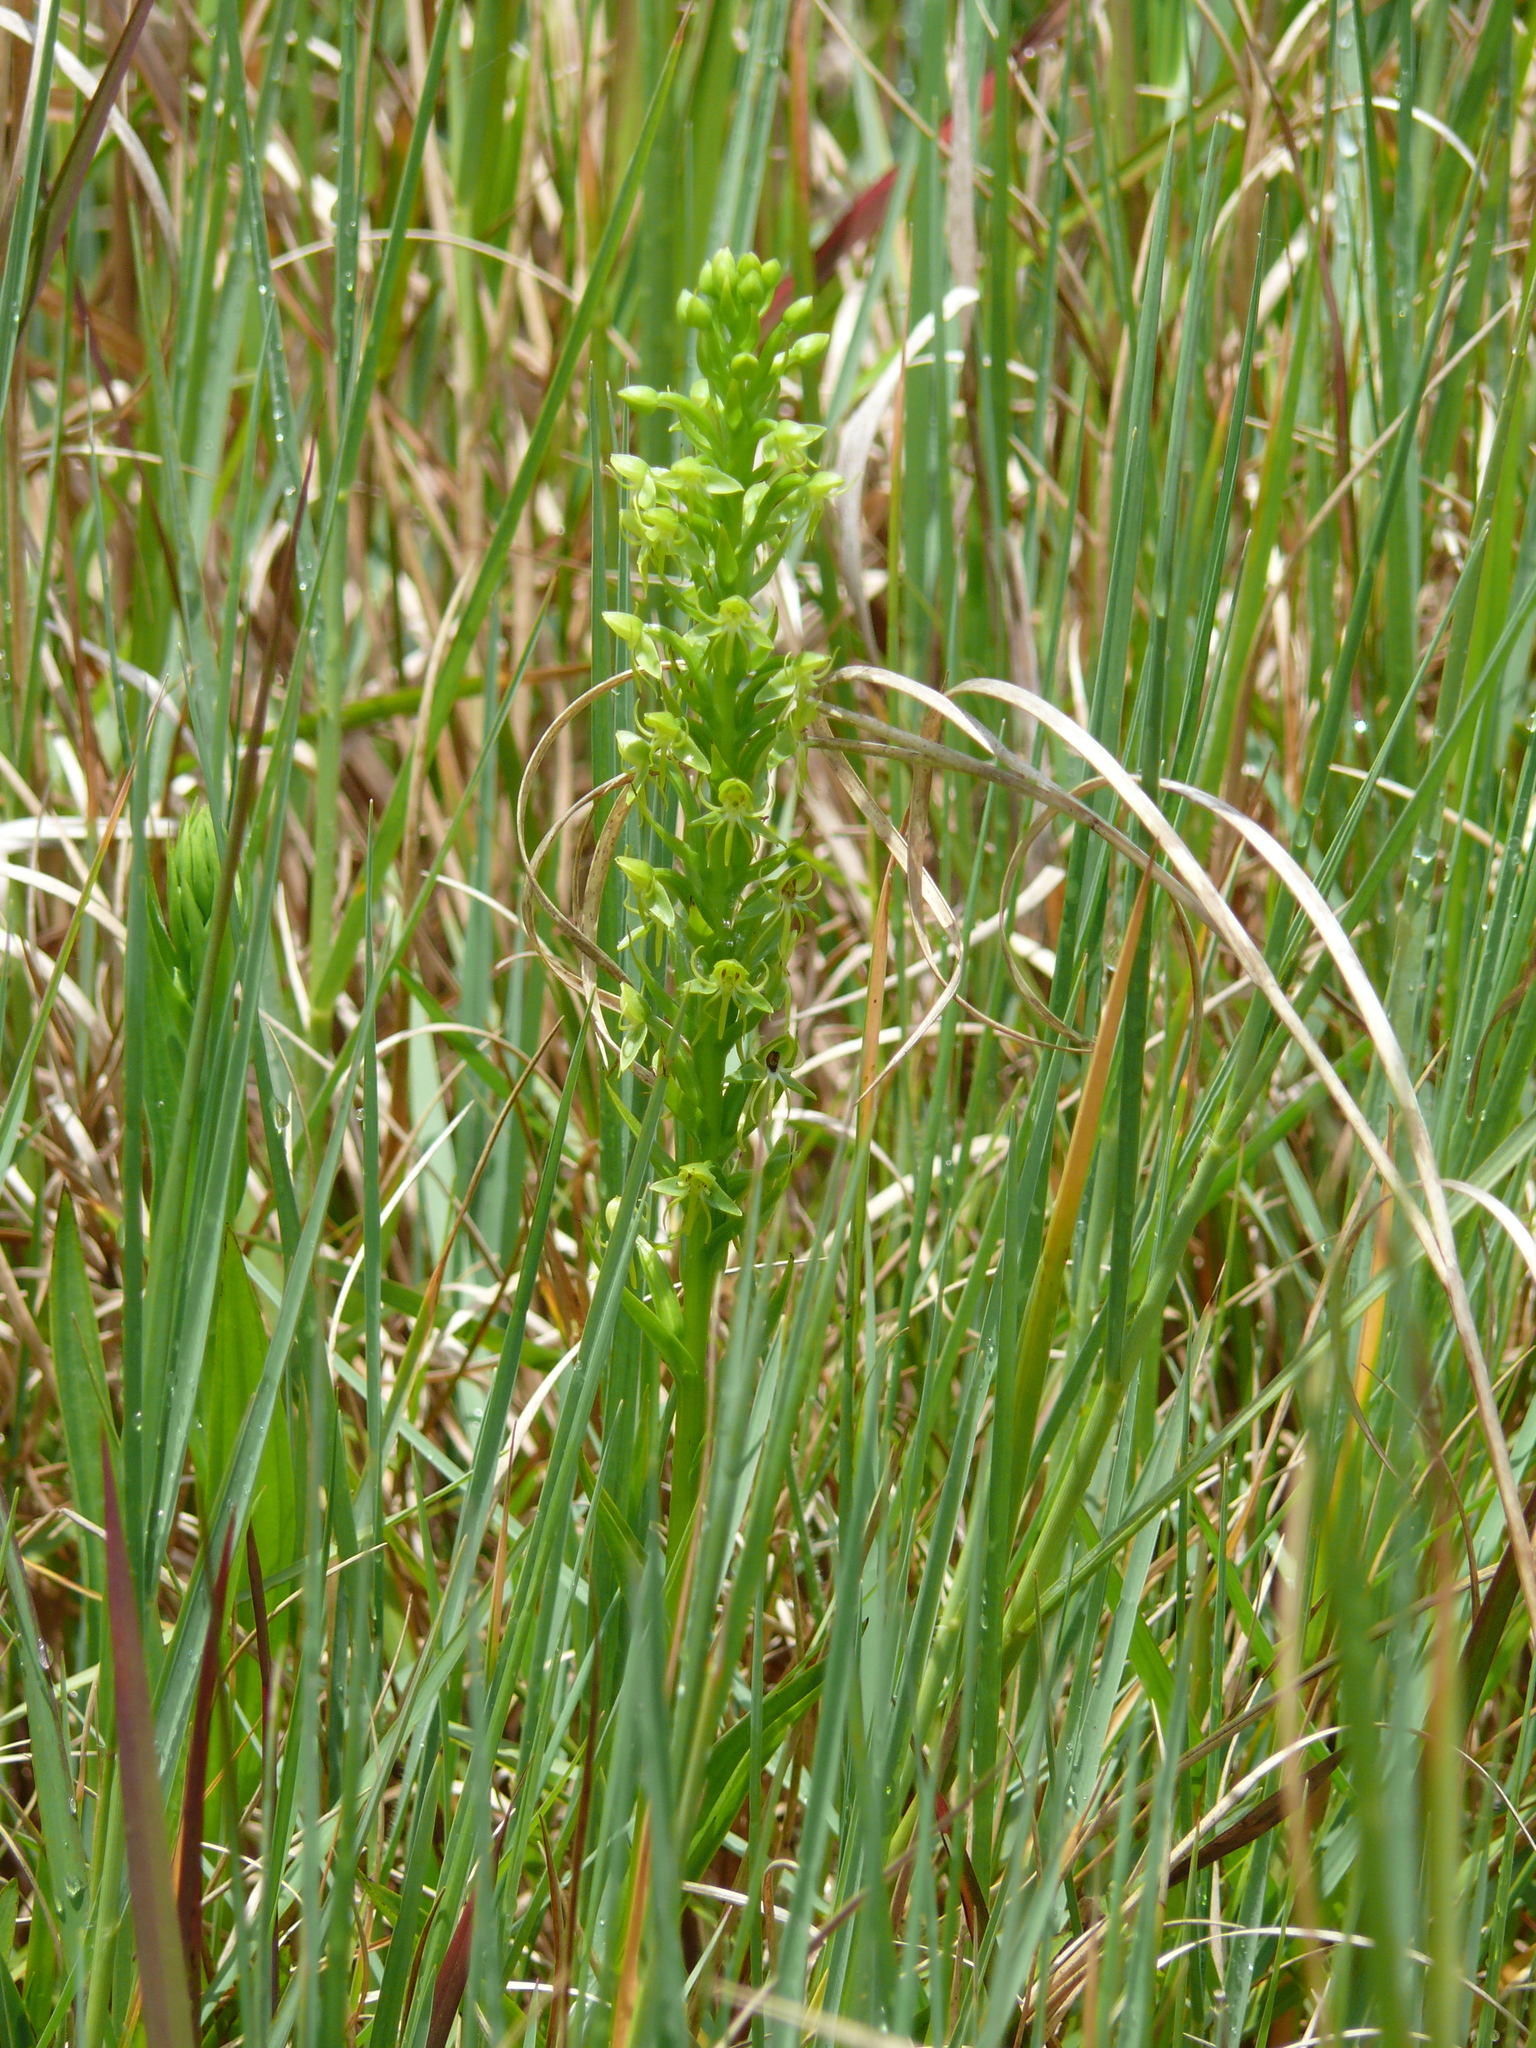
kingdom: Plantae
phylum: Tracheophyta
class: Liliopsida
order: Asparagales
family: Orchidaceae
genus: Habenaria
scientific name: Habenaria repens
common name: Water orchid
